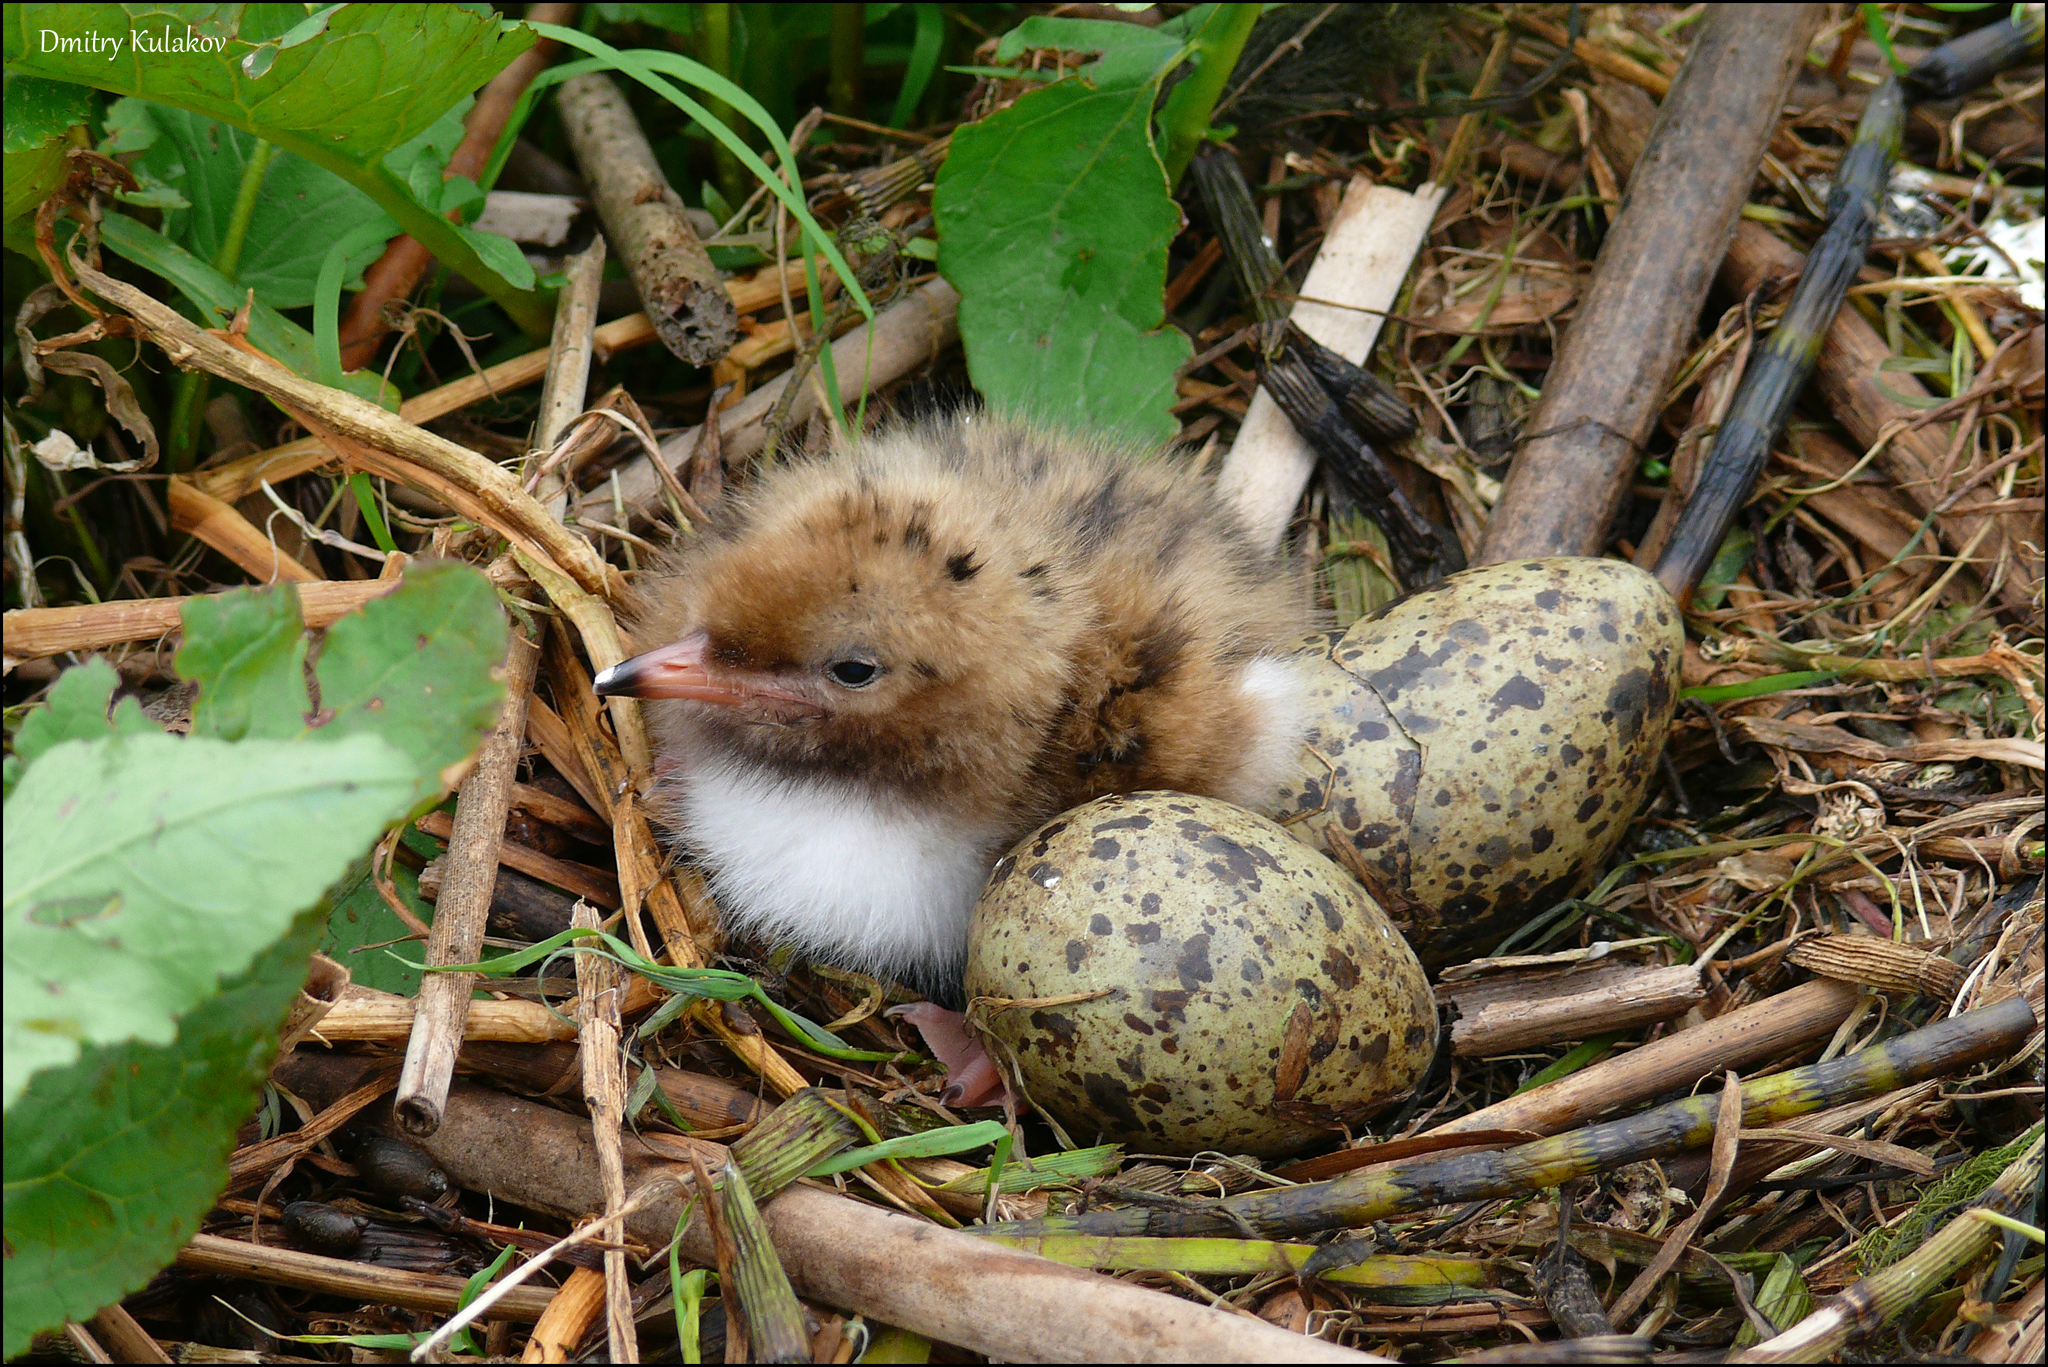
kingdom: Animalia
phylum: Chordata
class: Aves
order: Charadriiformes
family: Laridae
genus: Sterna
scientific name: Sterna hirundo
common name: Common tern
